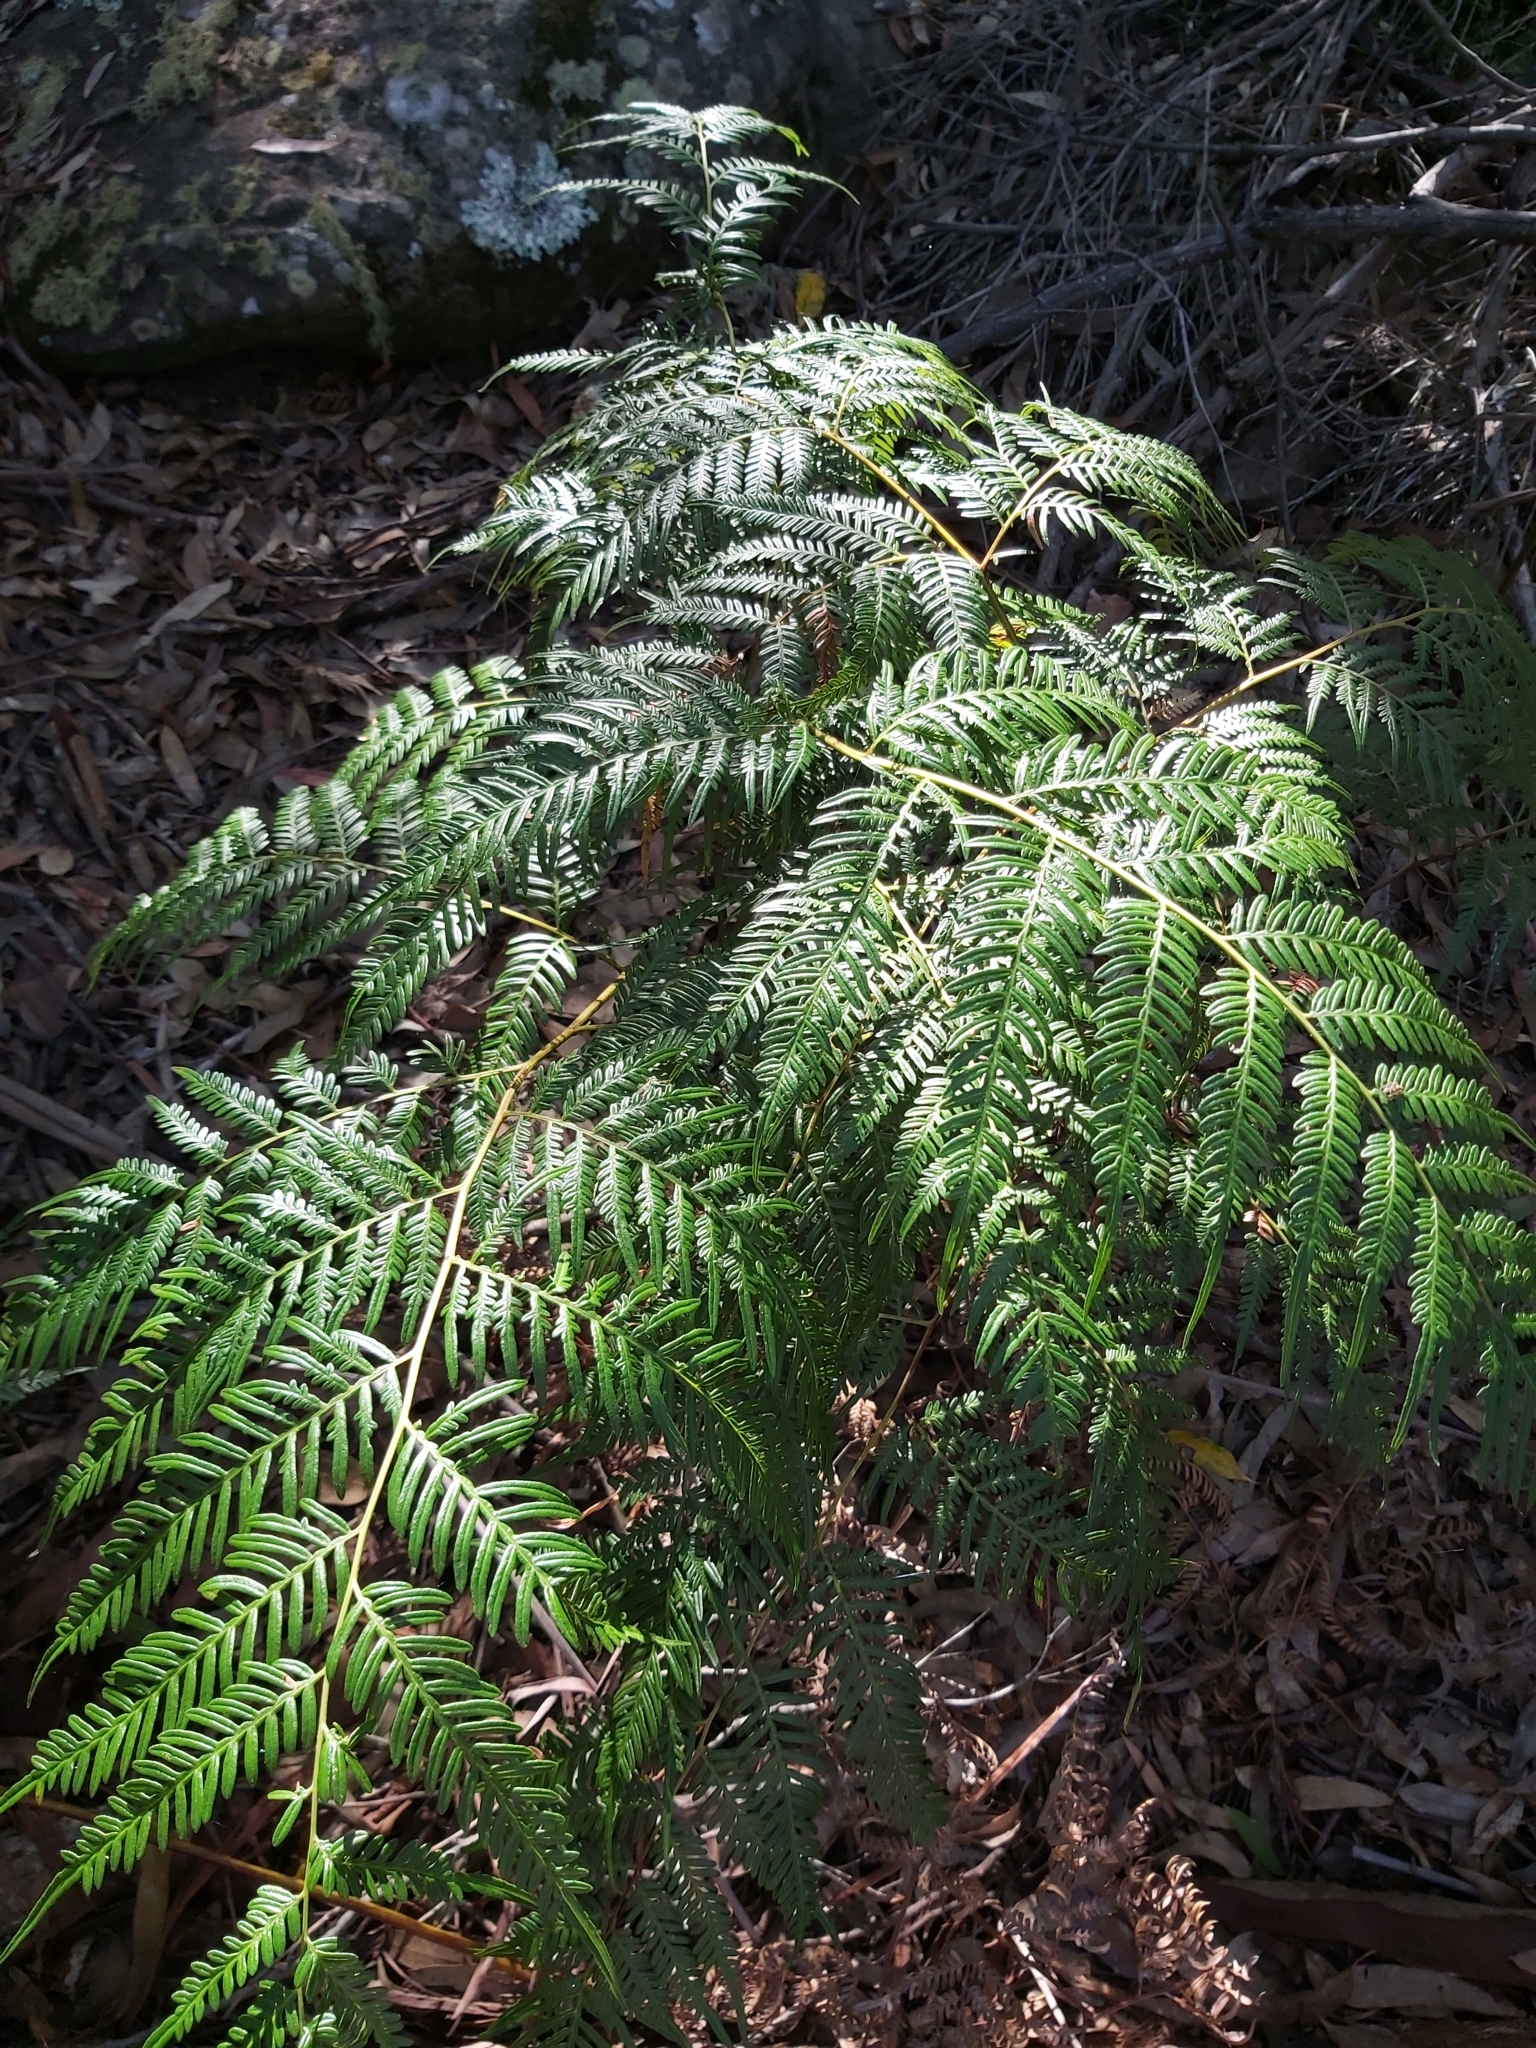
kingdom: Plantae
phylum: Tracheophyta
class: Polypodiopsida
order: Polypodiales
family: Dennstaedtiaceae
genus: Pteridium
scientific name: Pteridium esculentum
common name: Bracken fern
